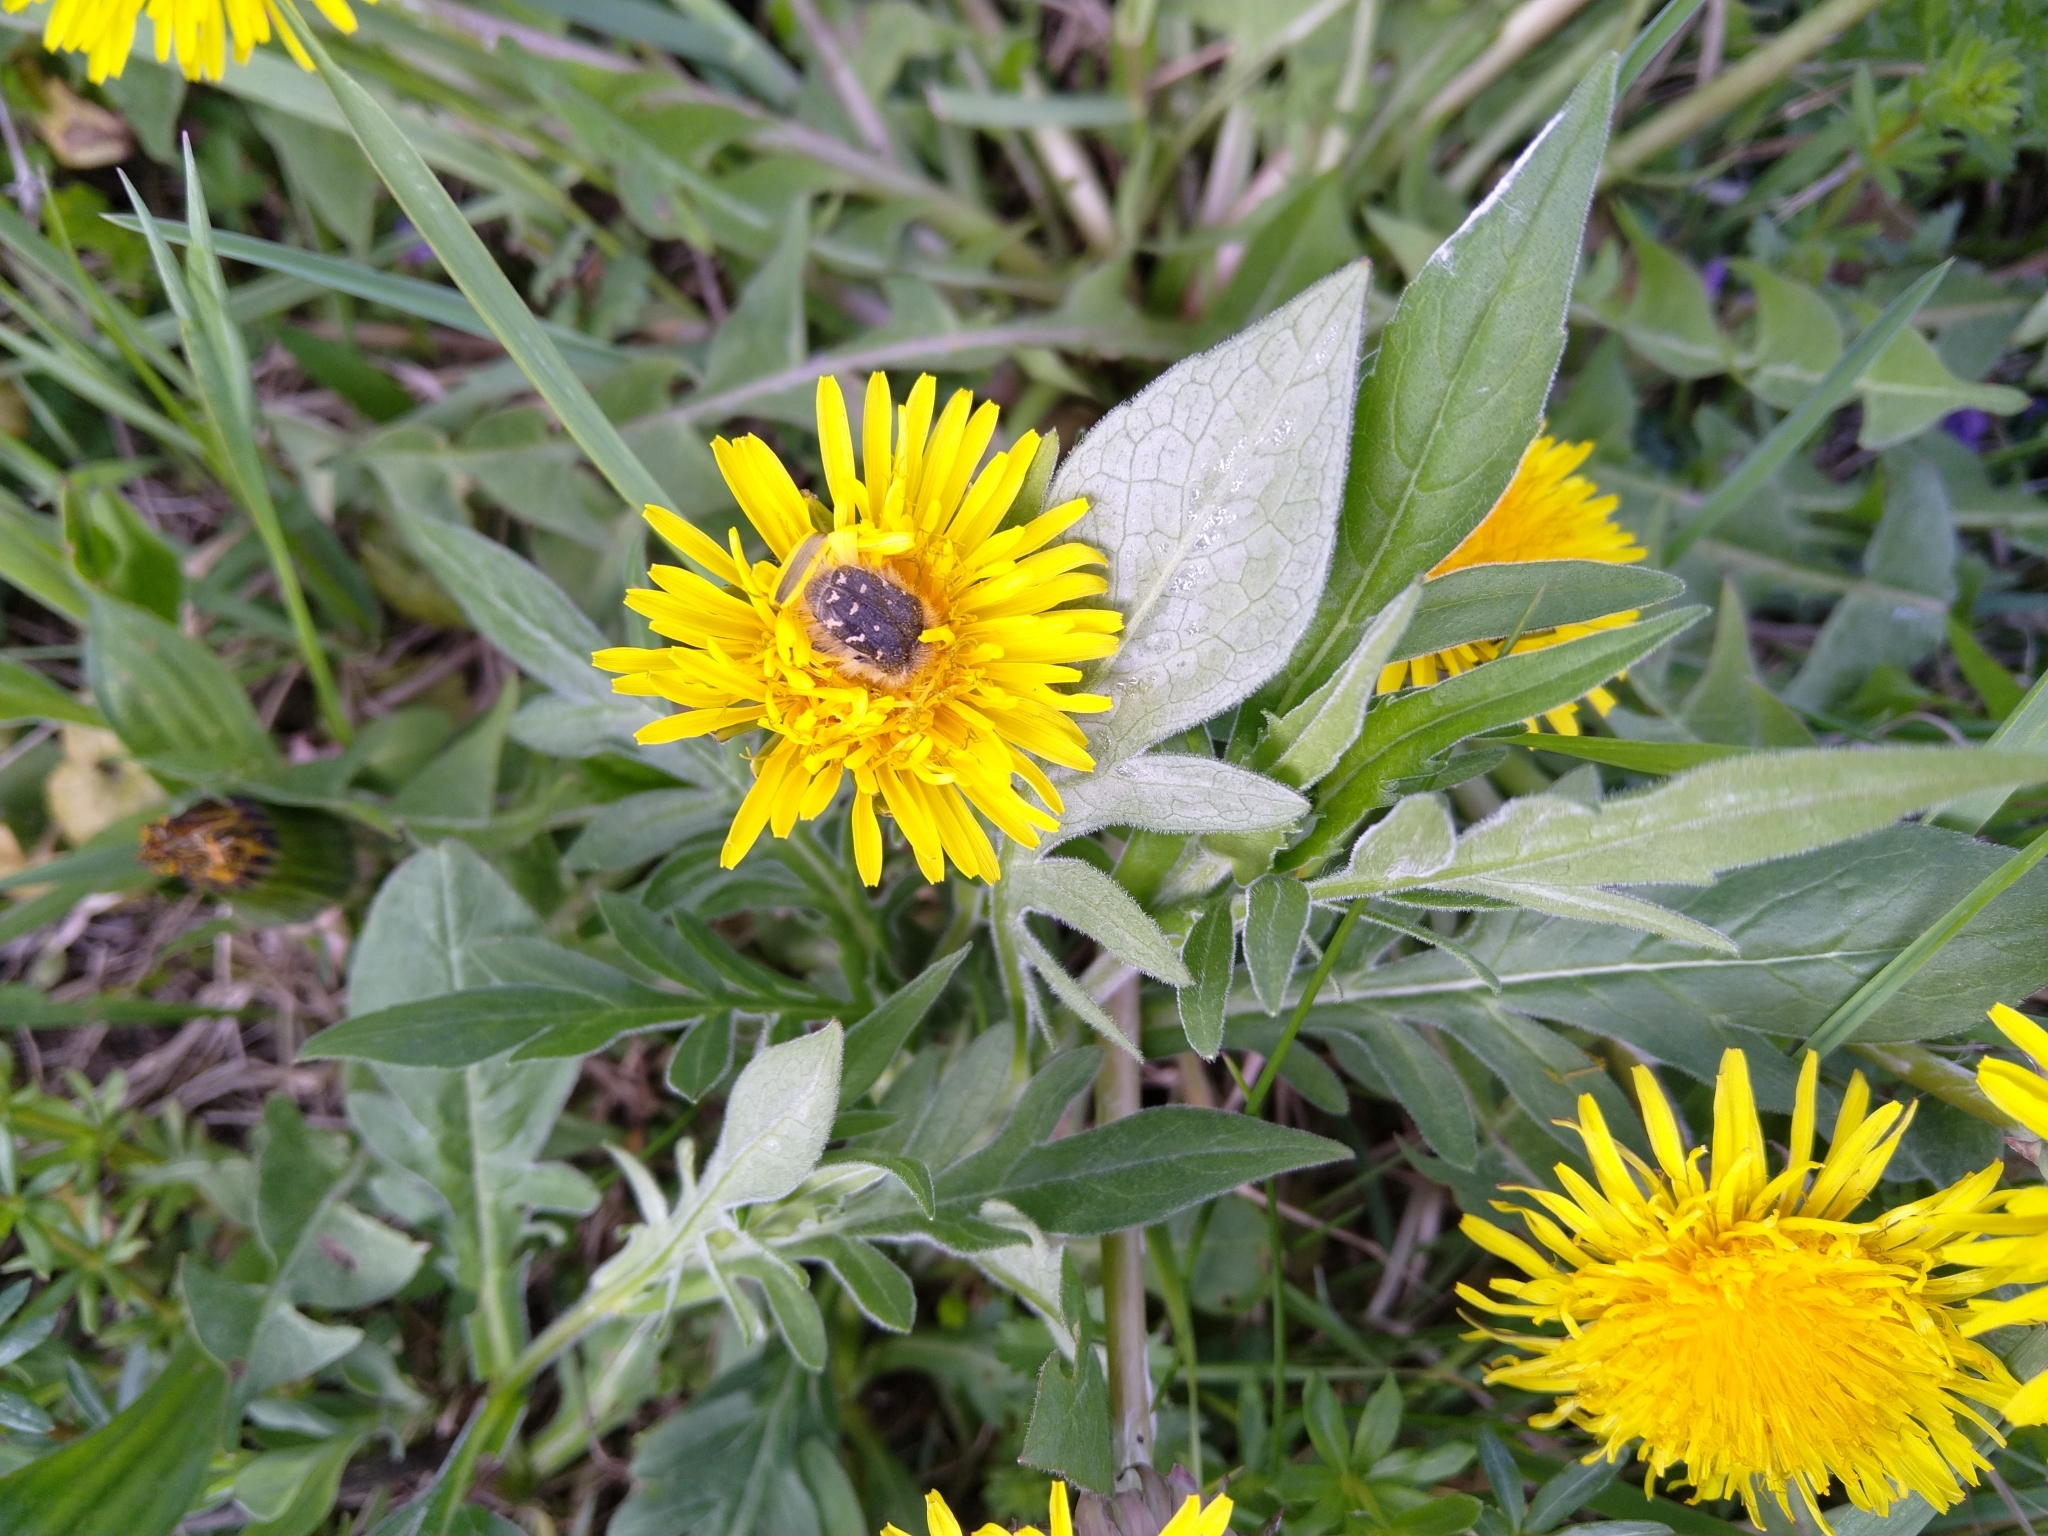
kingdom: Animalia
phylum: Arthropoda
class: Insecta
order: Coleoptera
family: Scarabaeidae
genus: Tropinota
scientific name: Tropinota hirta
